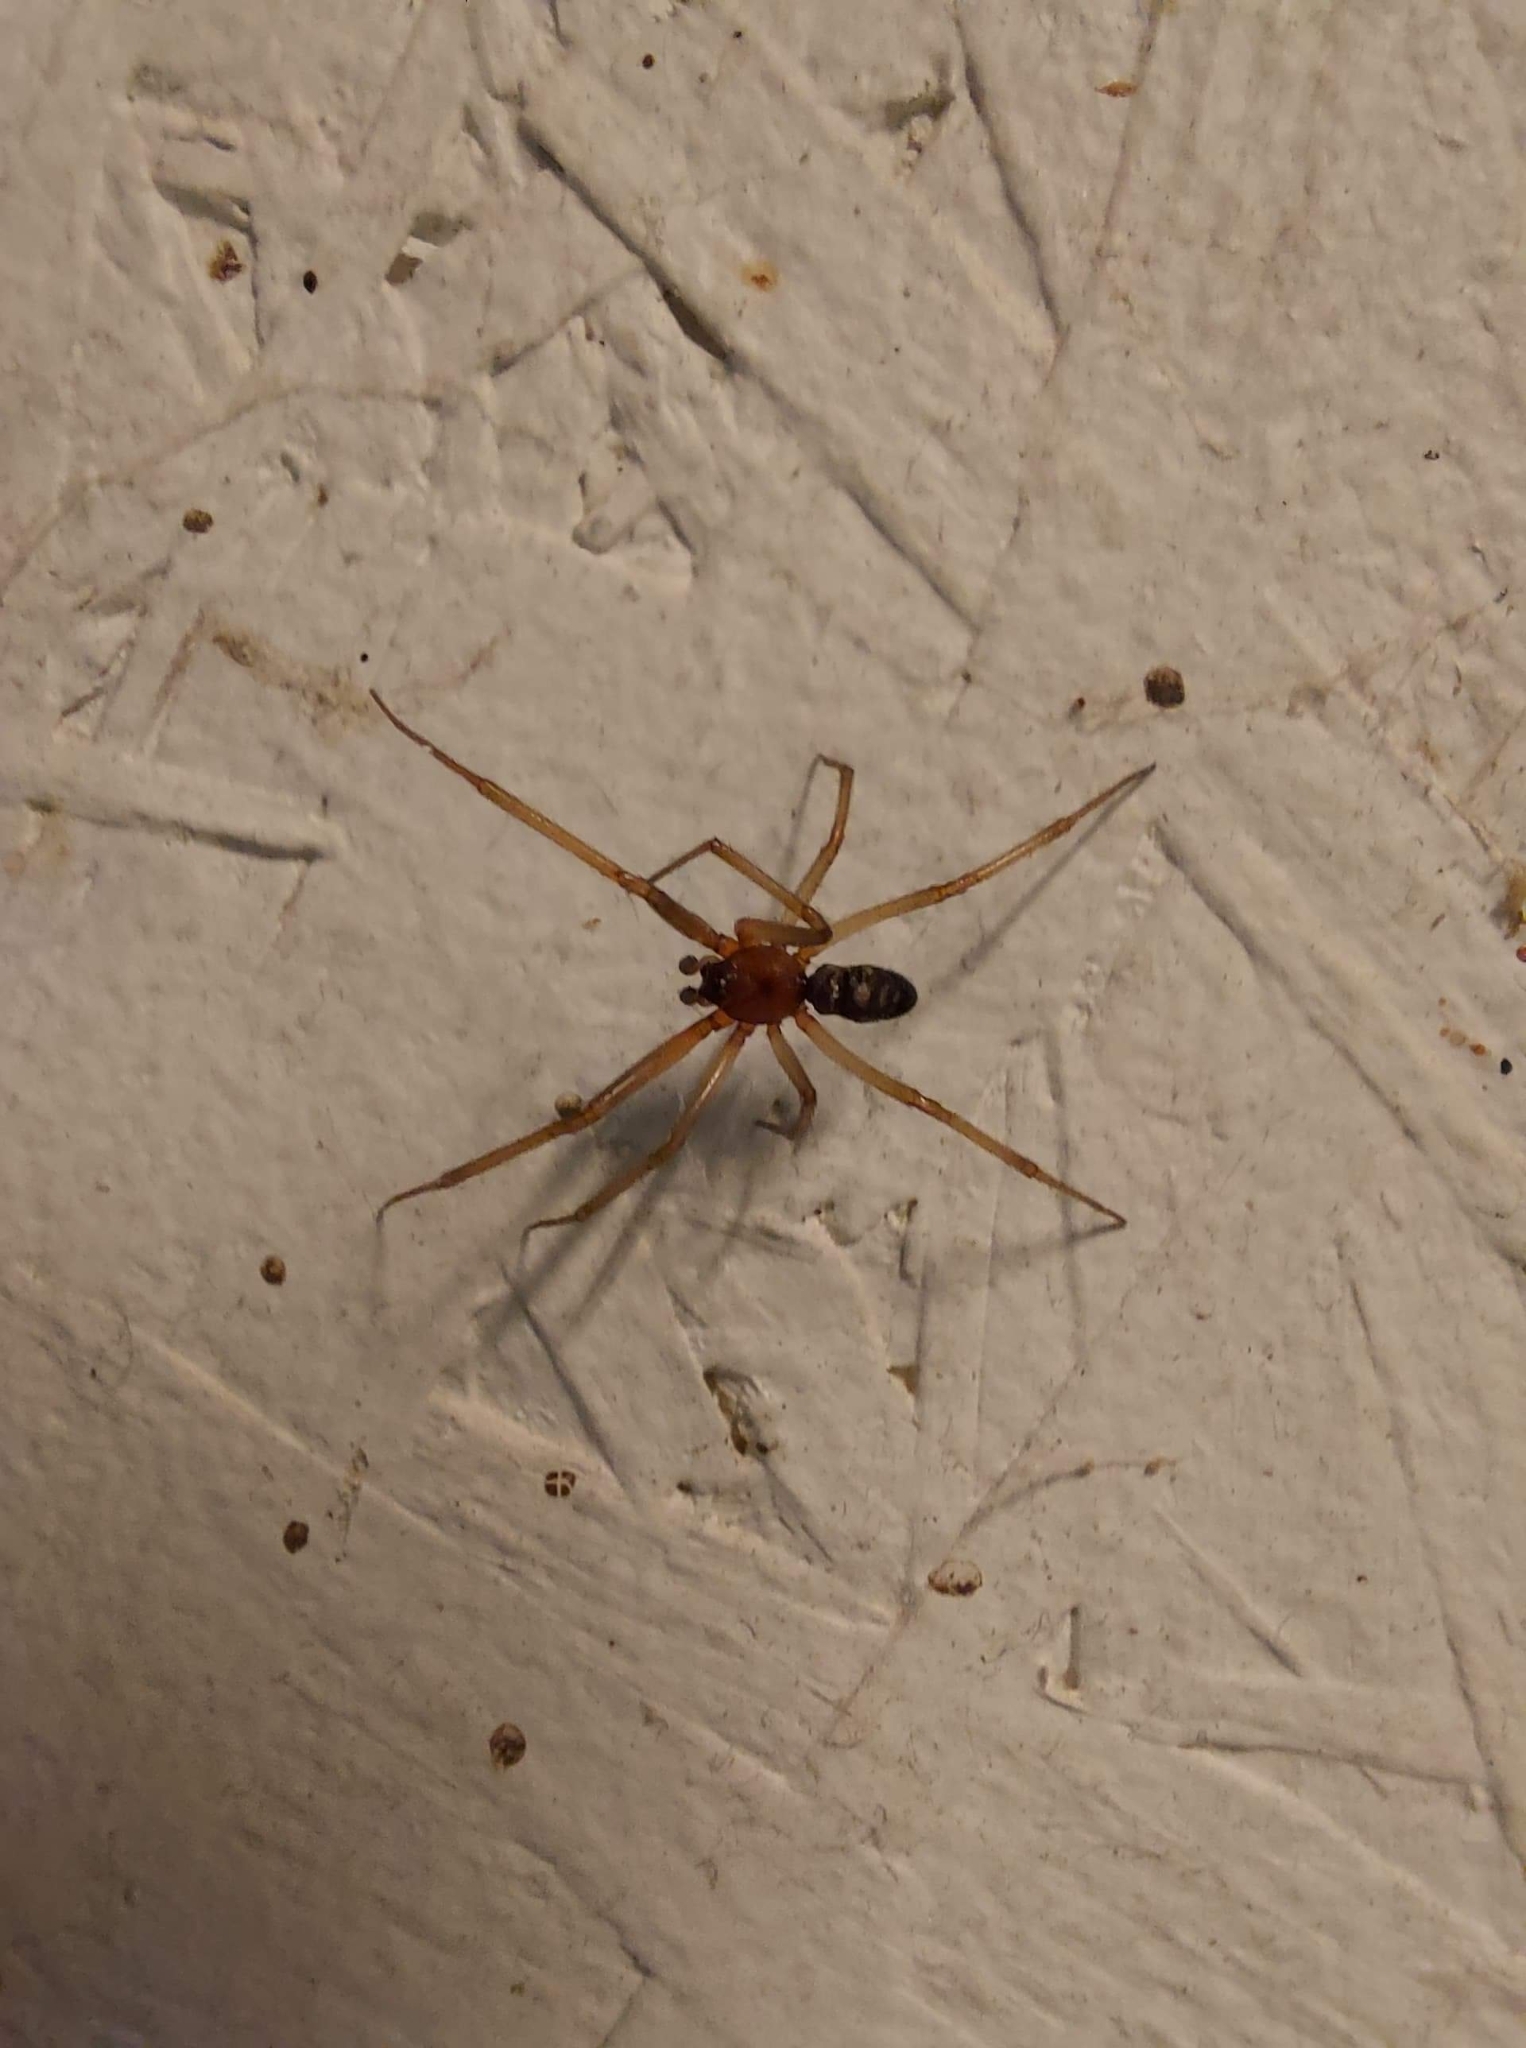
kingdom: Animalia
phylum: Arthropoda
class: Arachnida
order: Araneae
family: Theridiidae
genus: Steatoda
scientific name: Steatoda grossa
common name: False black widow
